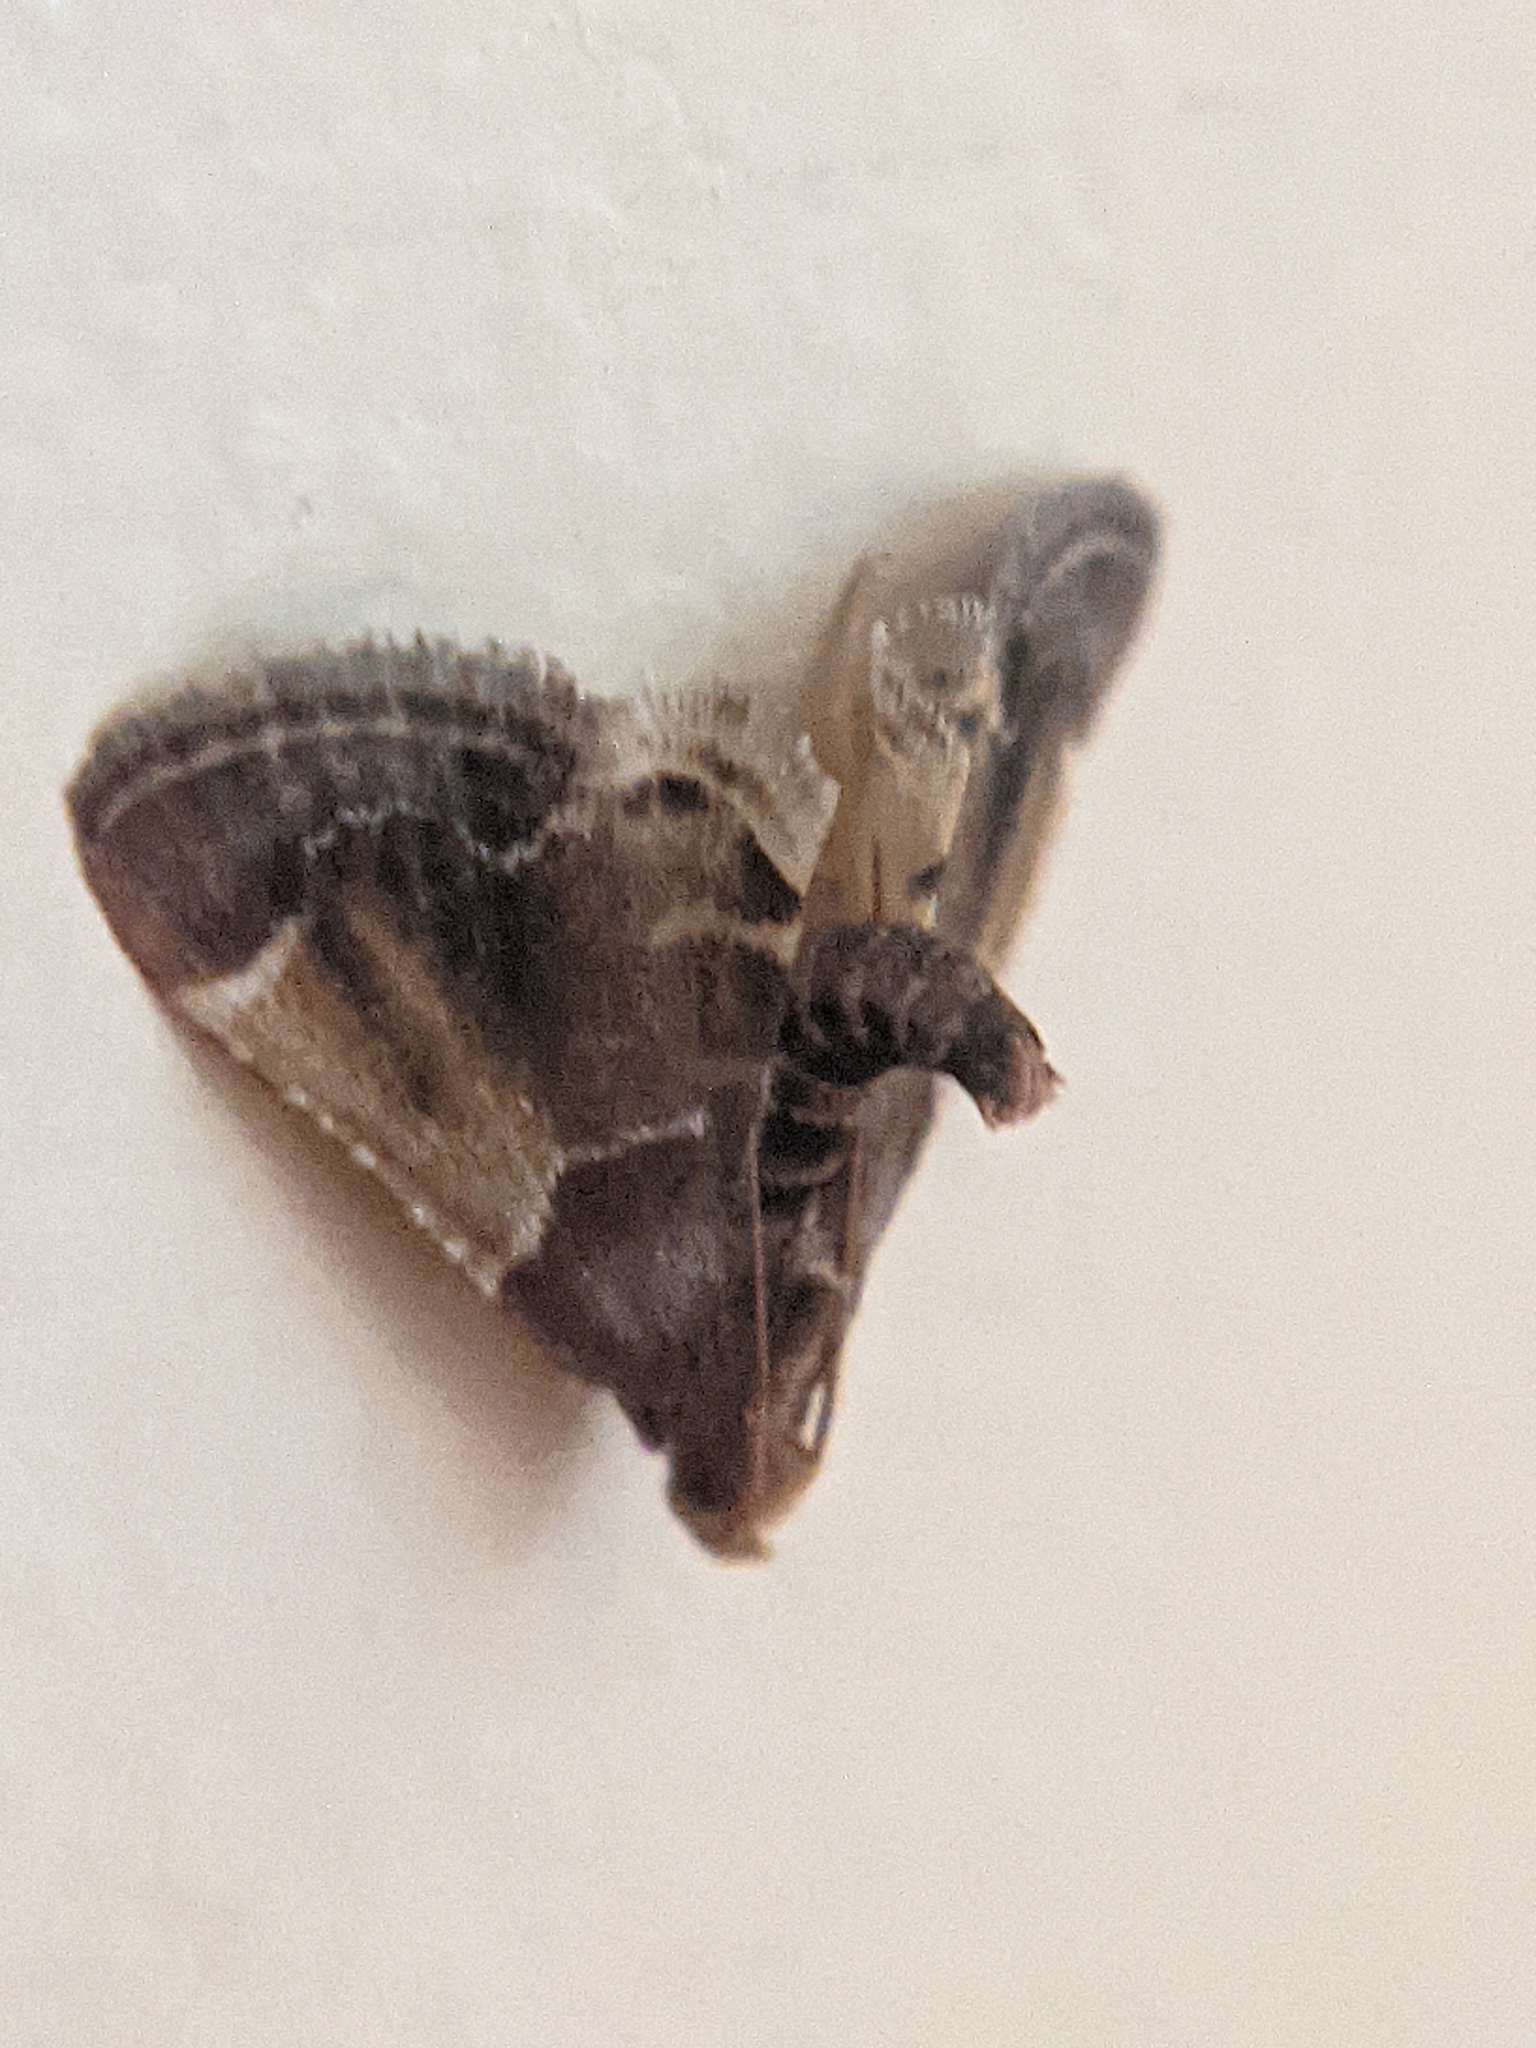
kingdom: Animalia
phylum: Arthropoda
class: Insecta
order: Lepidoptera
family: Pyralidae
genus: Pyralis
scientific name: Pyralis farinalis
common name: Meal moth
